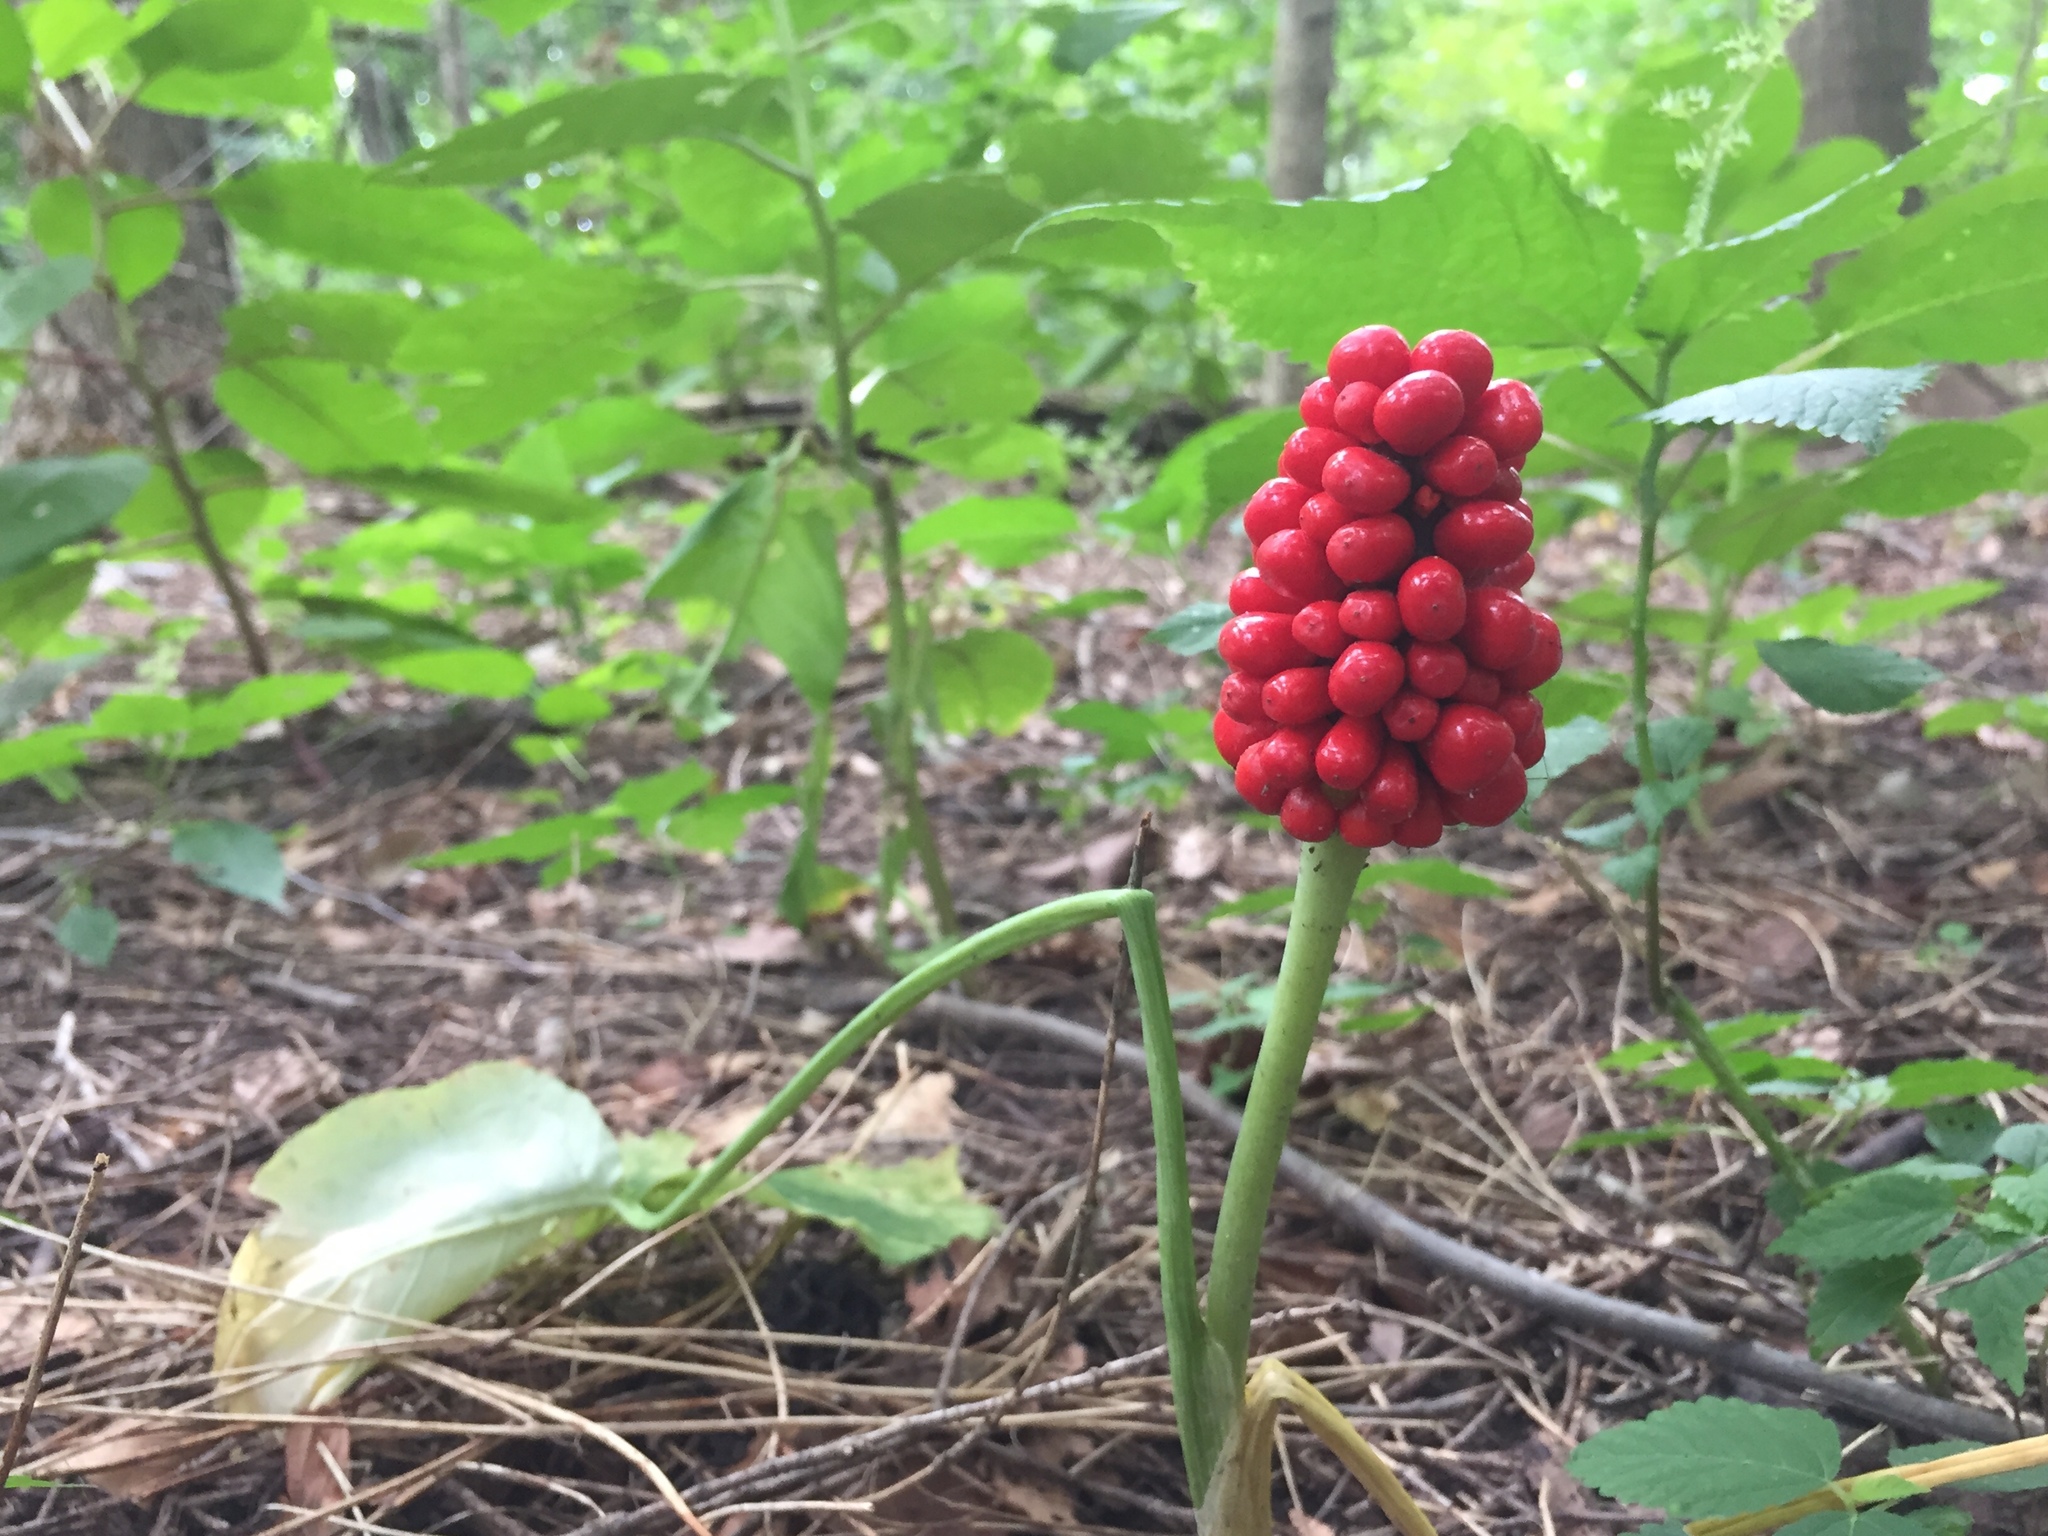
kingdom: Plantae
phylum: Tracheophyta
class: Liliopsida
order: Alismatales
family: Araceae
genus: Arisaema
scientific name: Arisaema triphyllum
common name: Jack-in-the-pulpit
